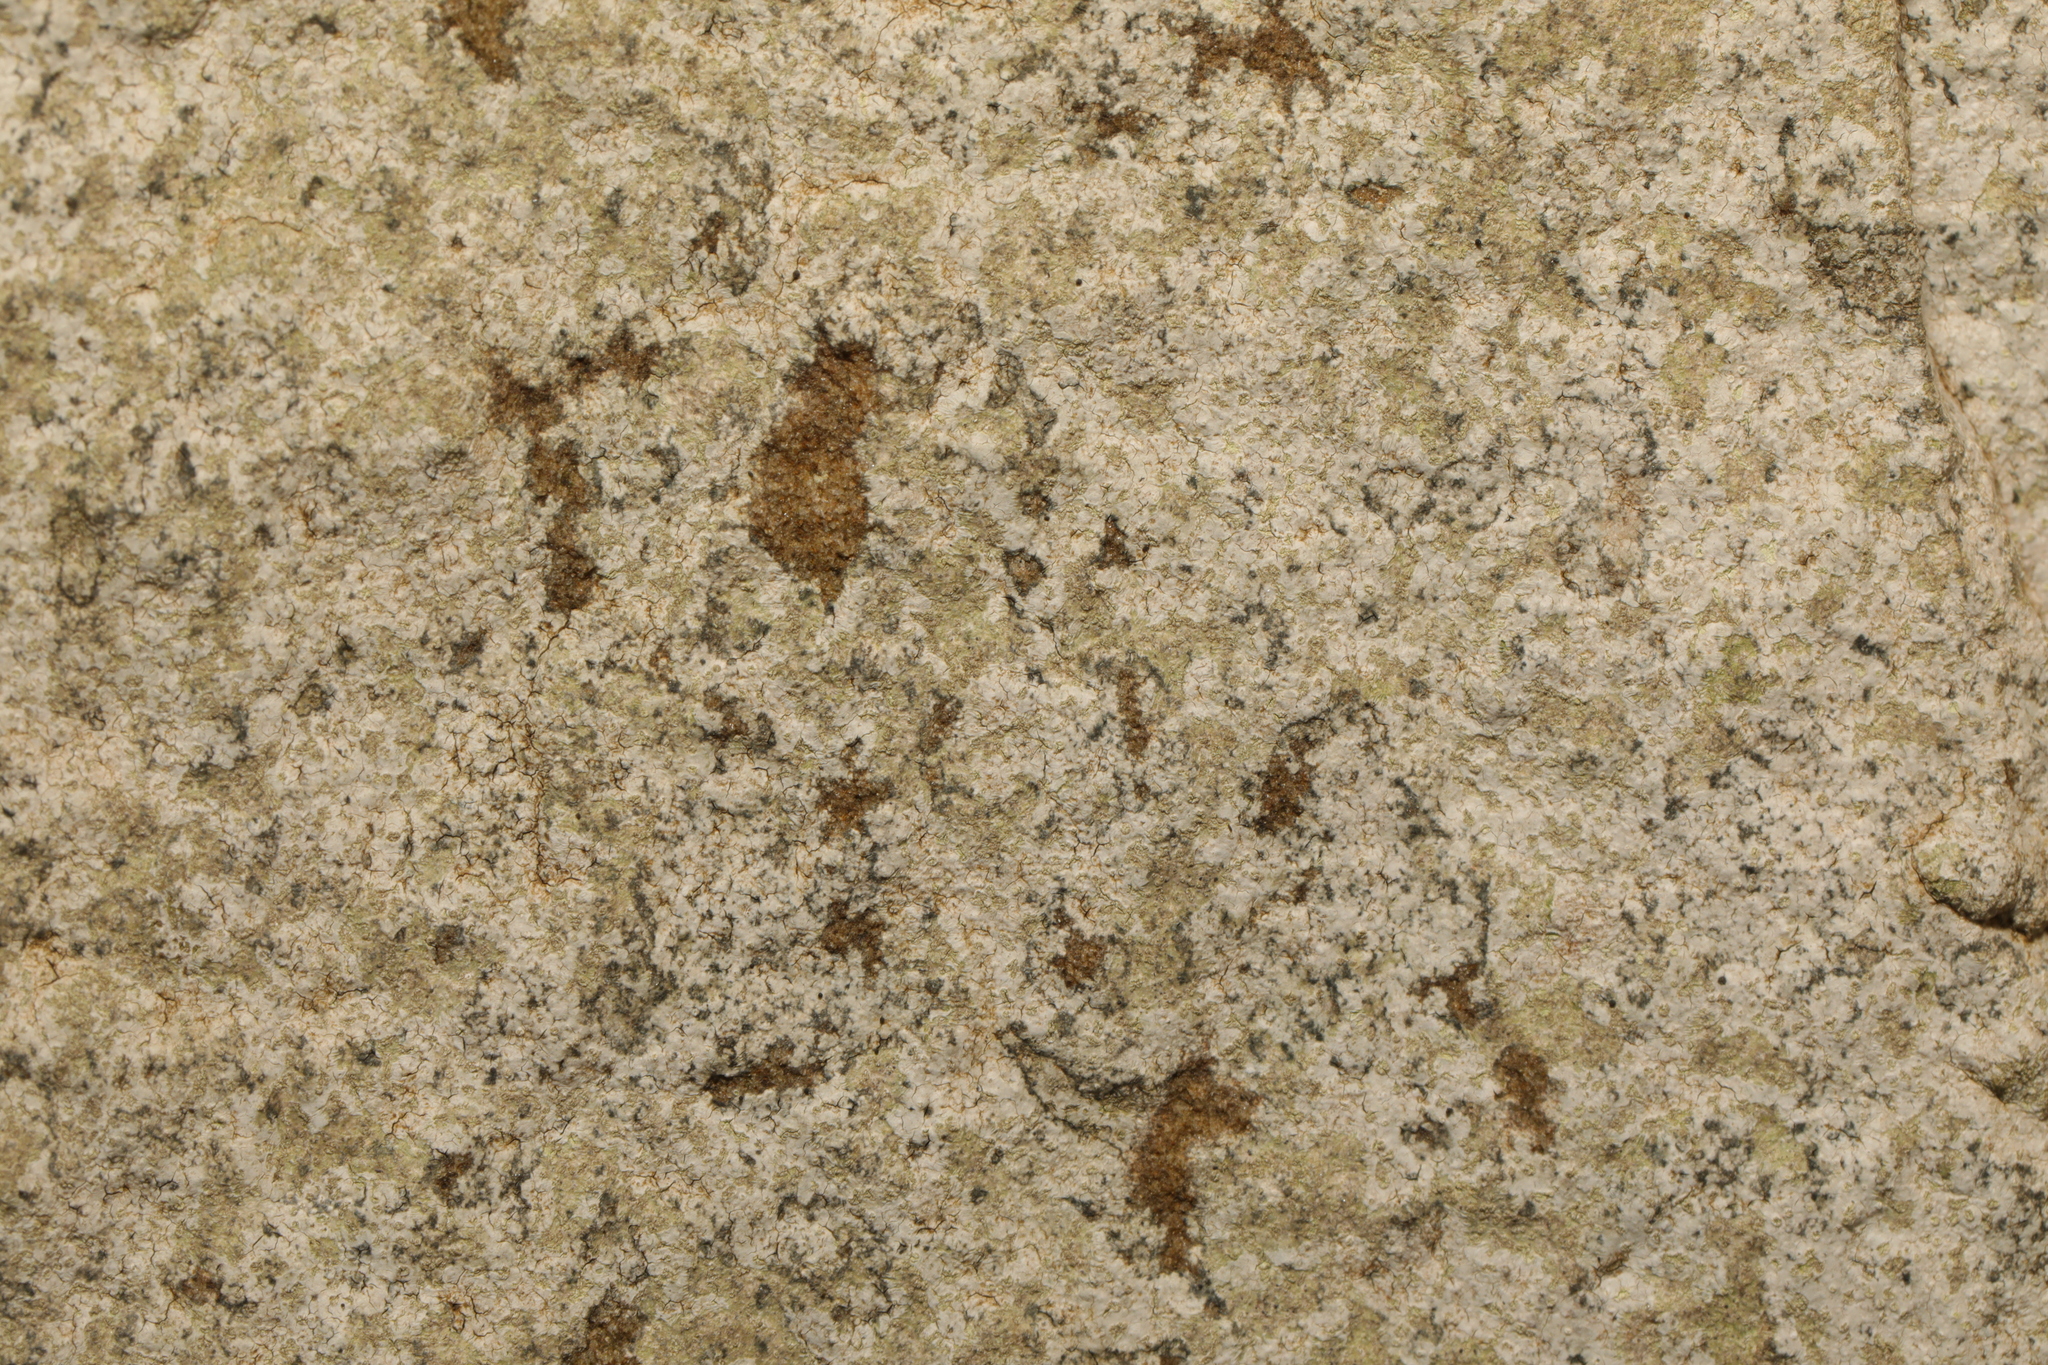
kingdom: Fungi
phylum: Ascomycota
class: Lecanoromycetes
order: Baeomycetales
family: Trapeliaceae
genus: Kleopowiella
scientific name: Kleopowiella placodioides
